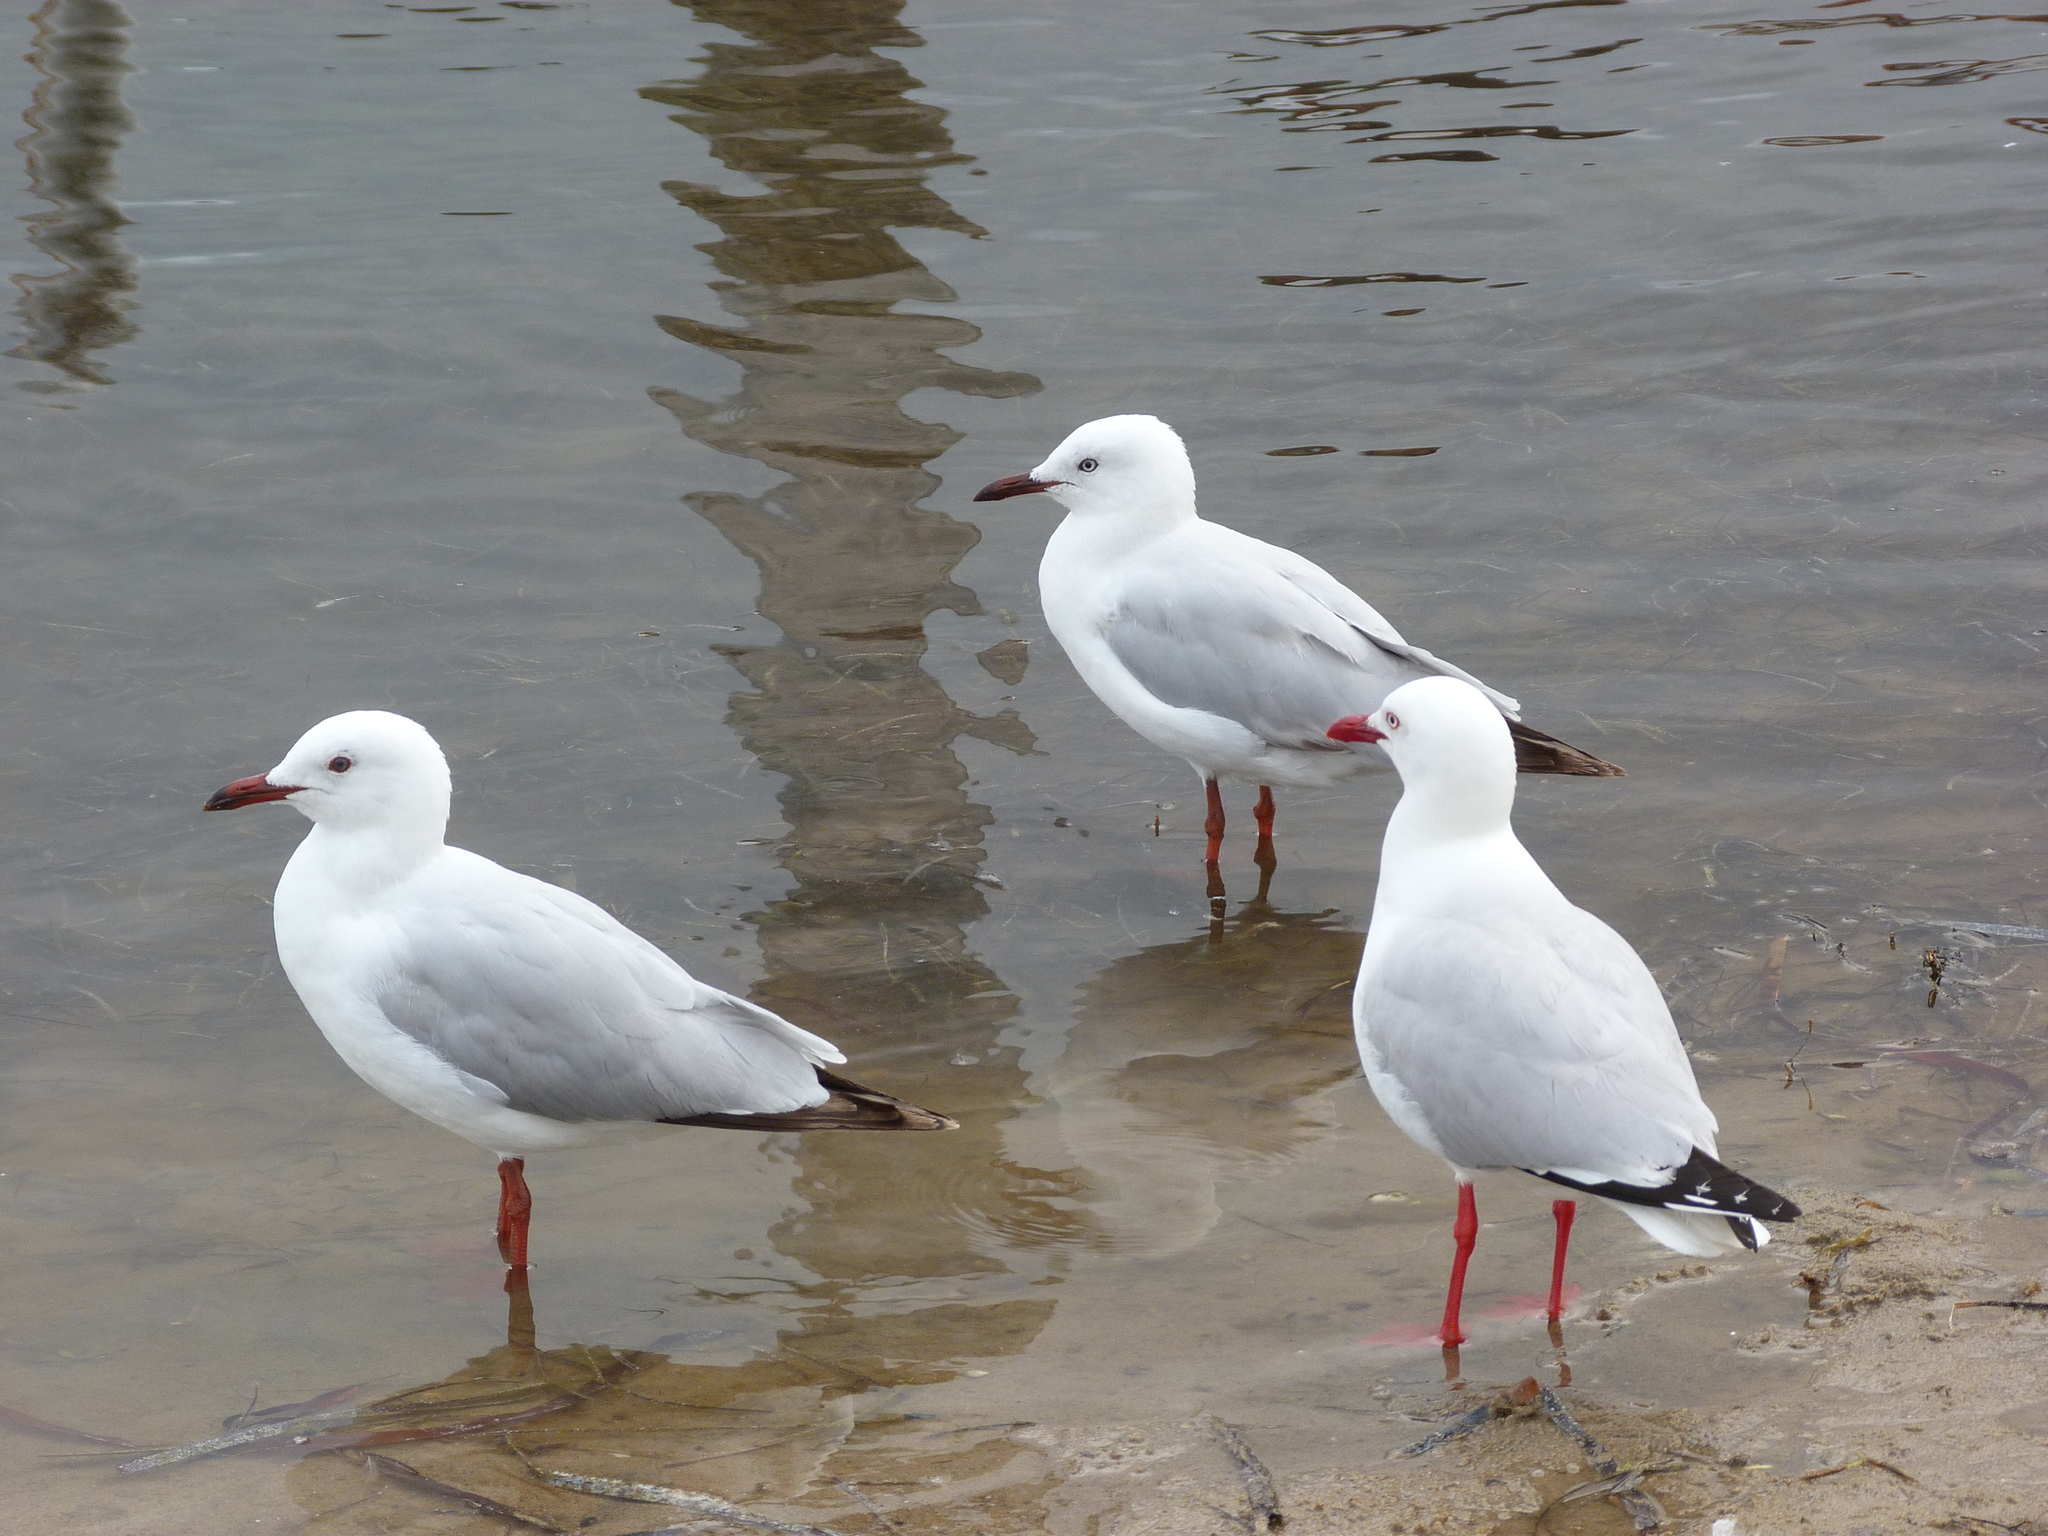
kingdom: Animalia
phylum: Chordata
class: Aves
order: Charadriiformes
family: Laridae
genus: Chroicocephalus
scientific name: Chroicocephalus novaehollandiae
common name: Silver gull
